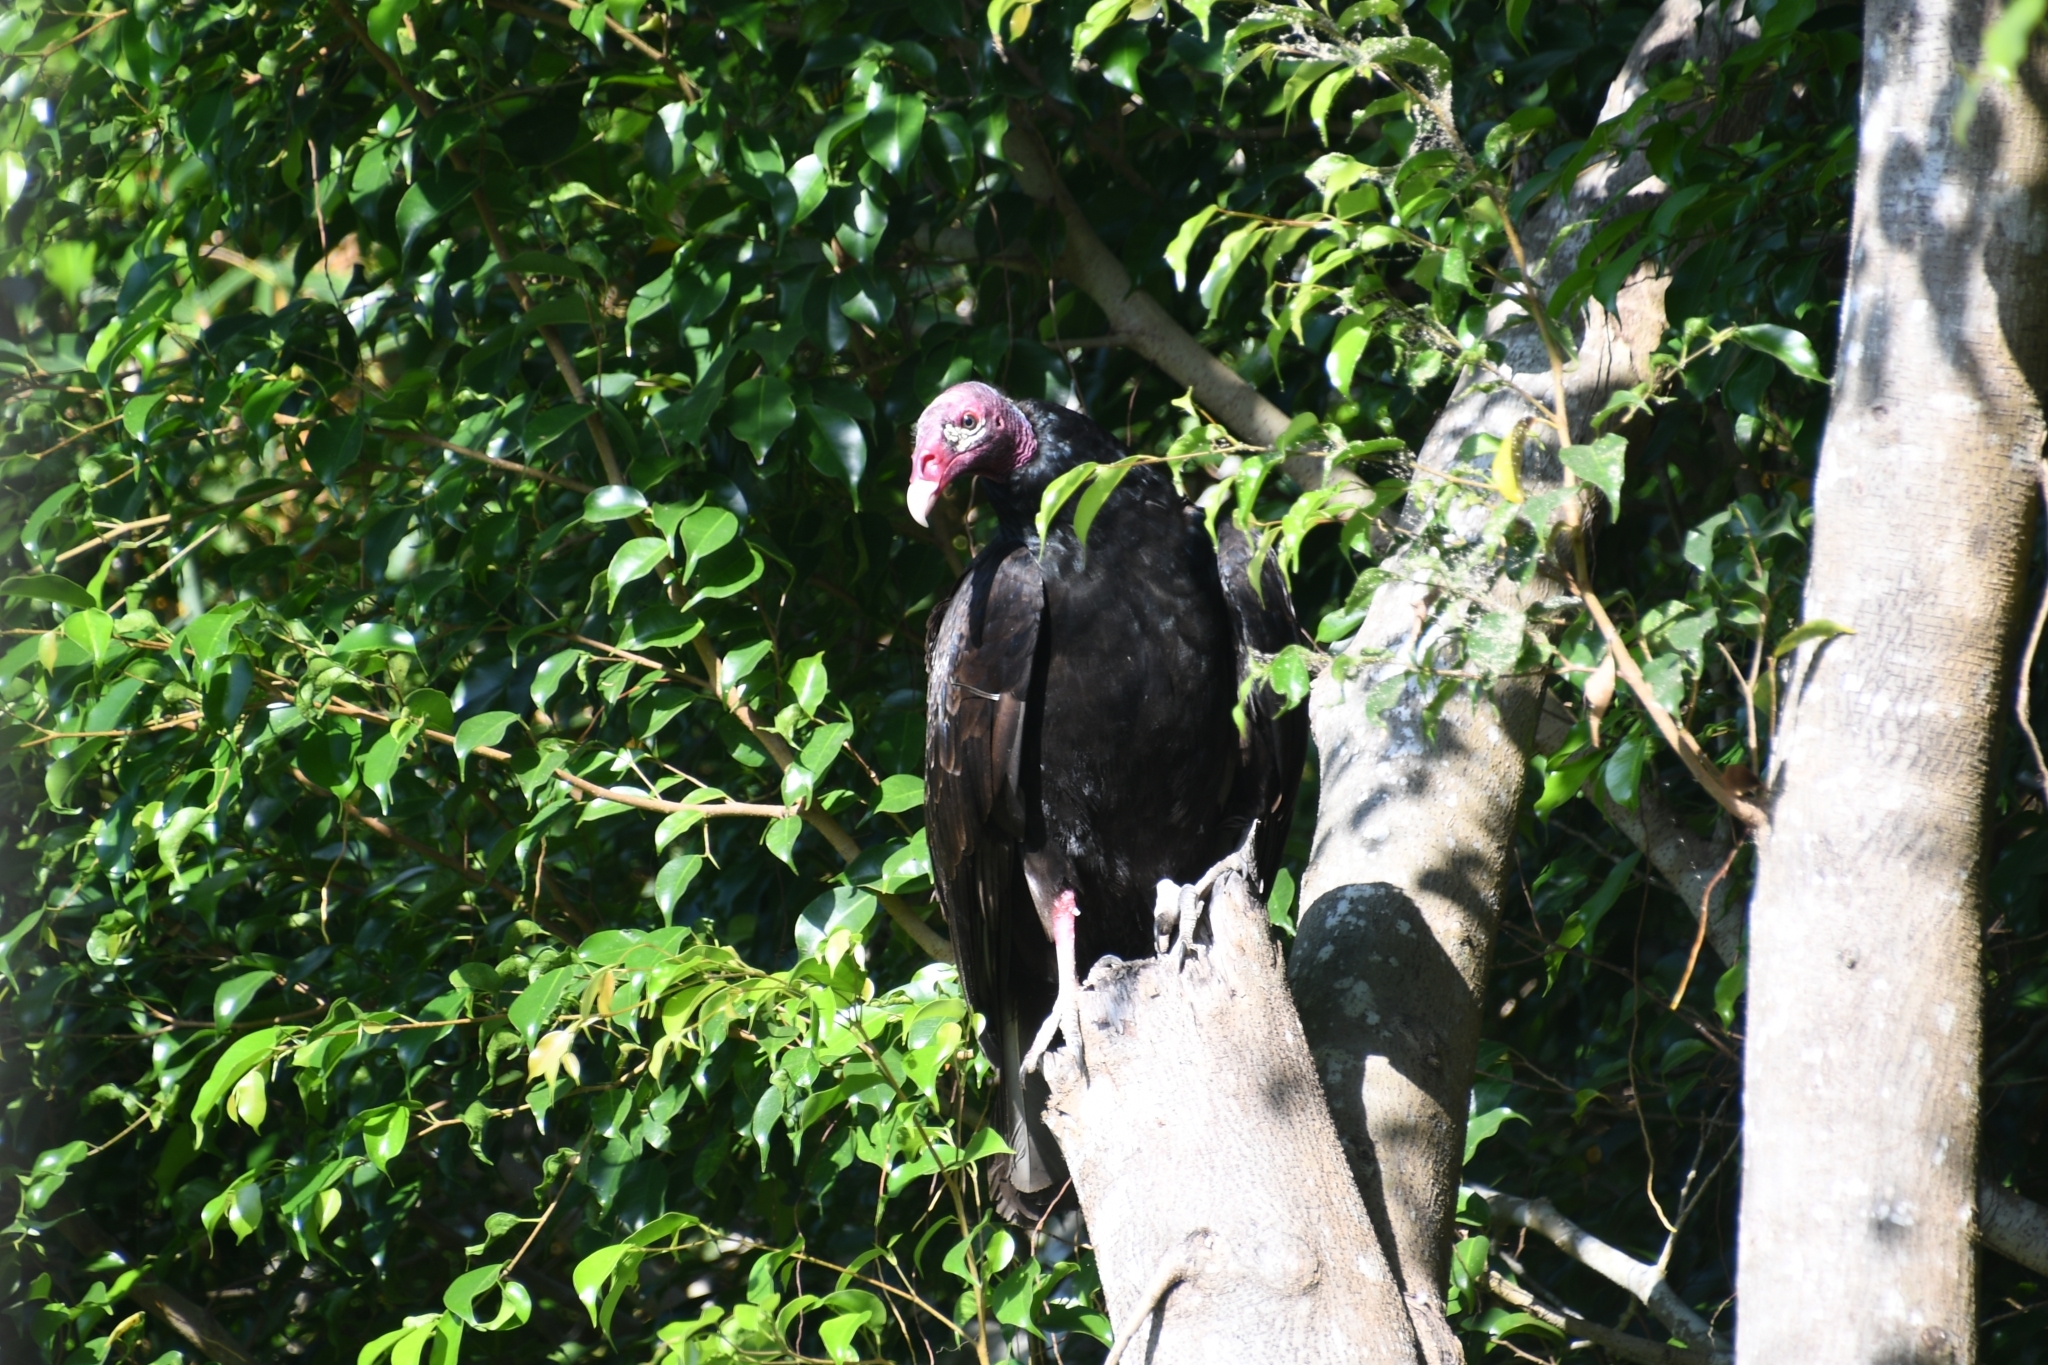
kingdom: Animalia
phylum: Chordata
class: Aves
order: Accipitriformes
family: Cathartidae
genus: Cathartes
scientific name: Cathartes aura
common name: Turkey vulture
